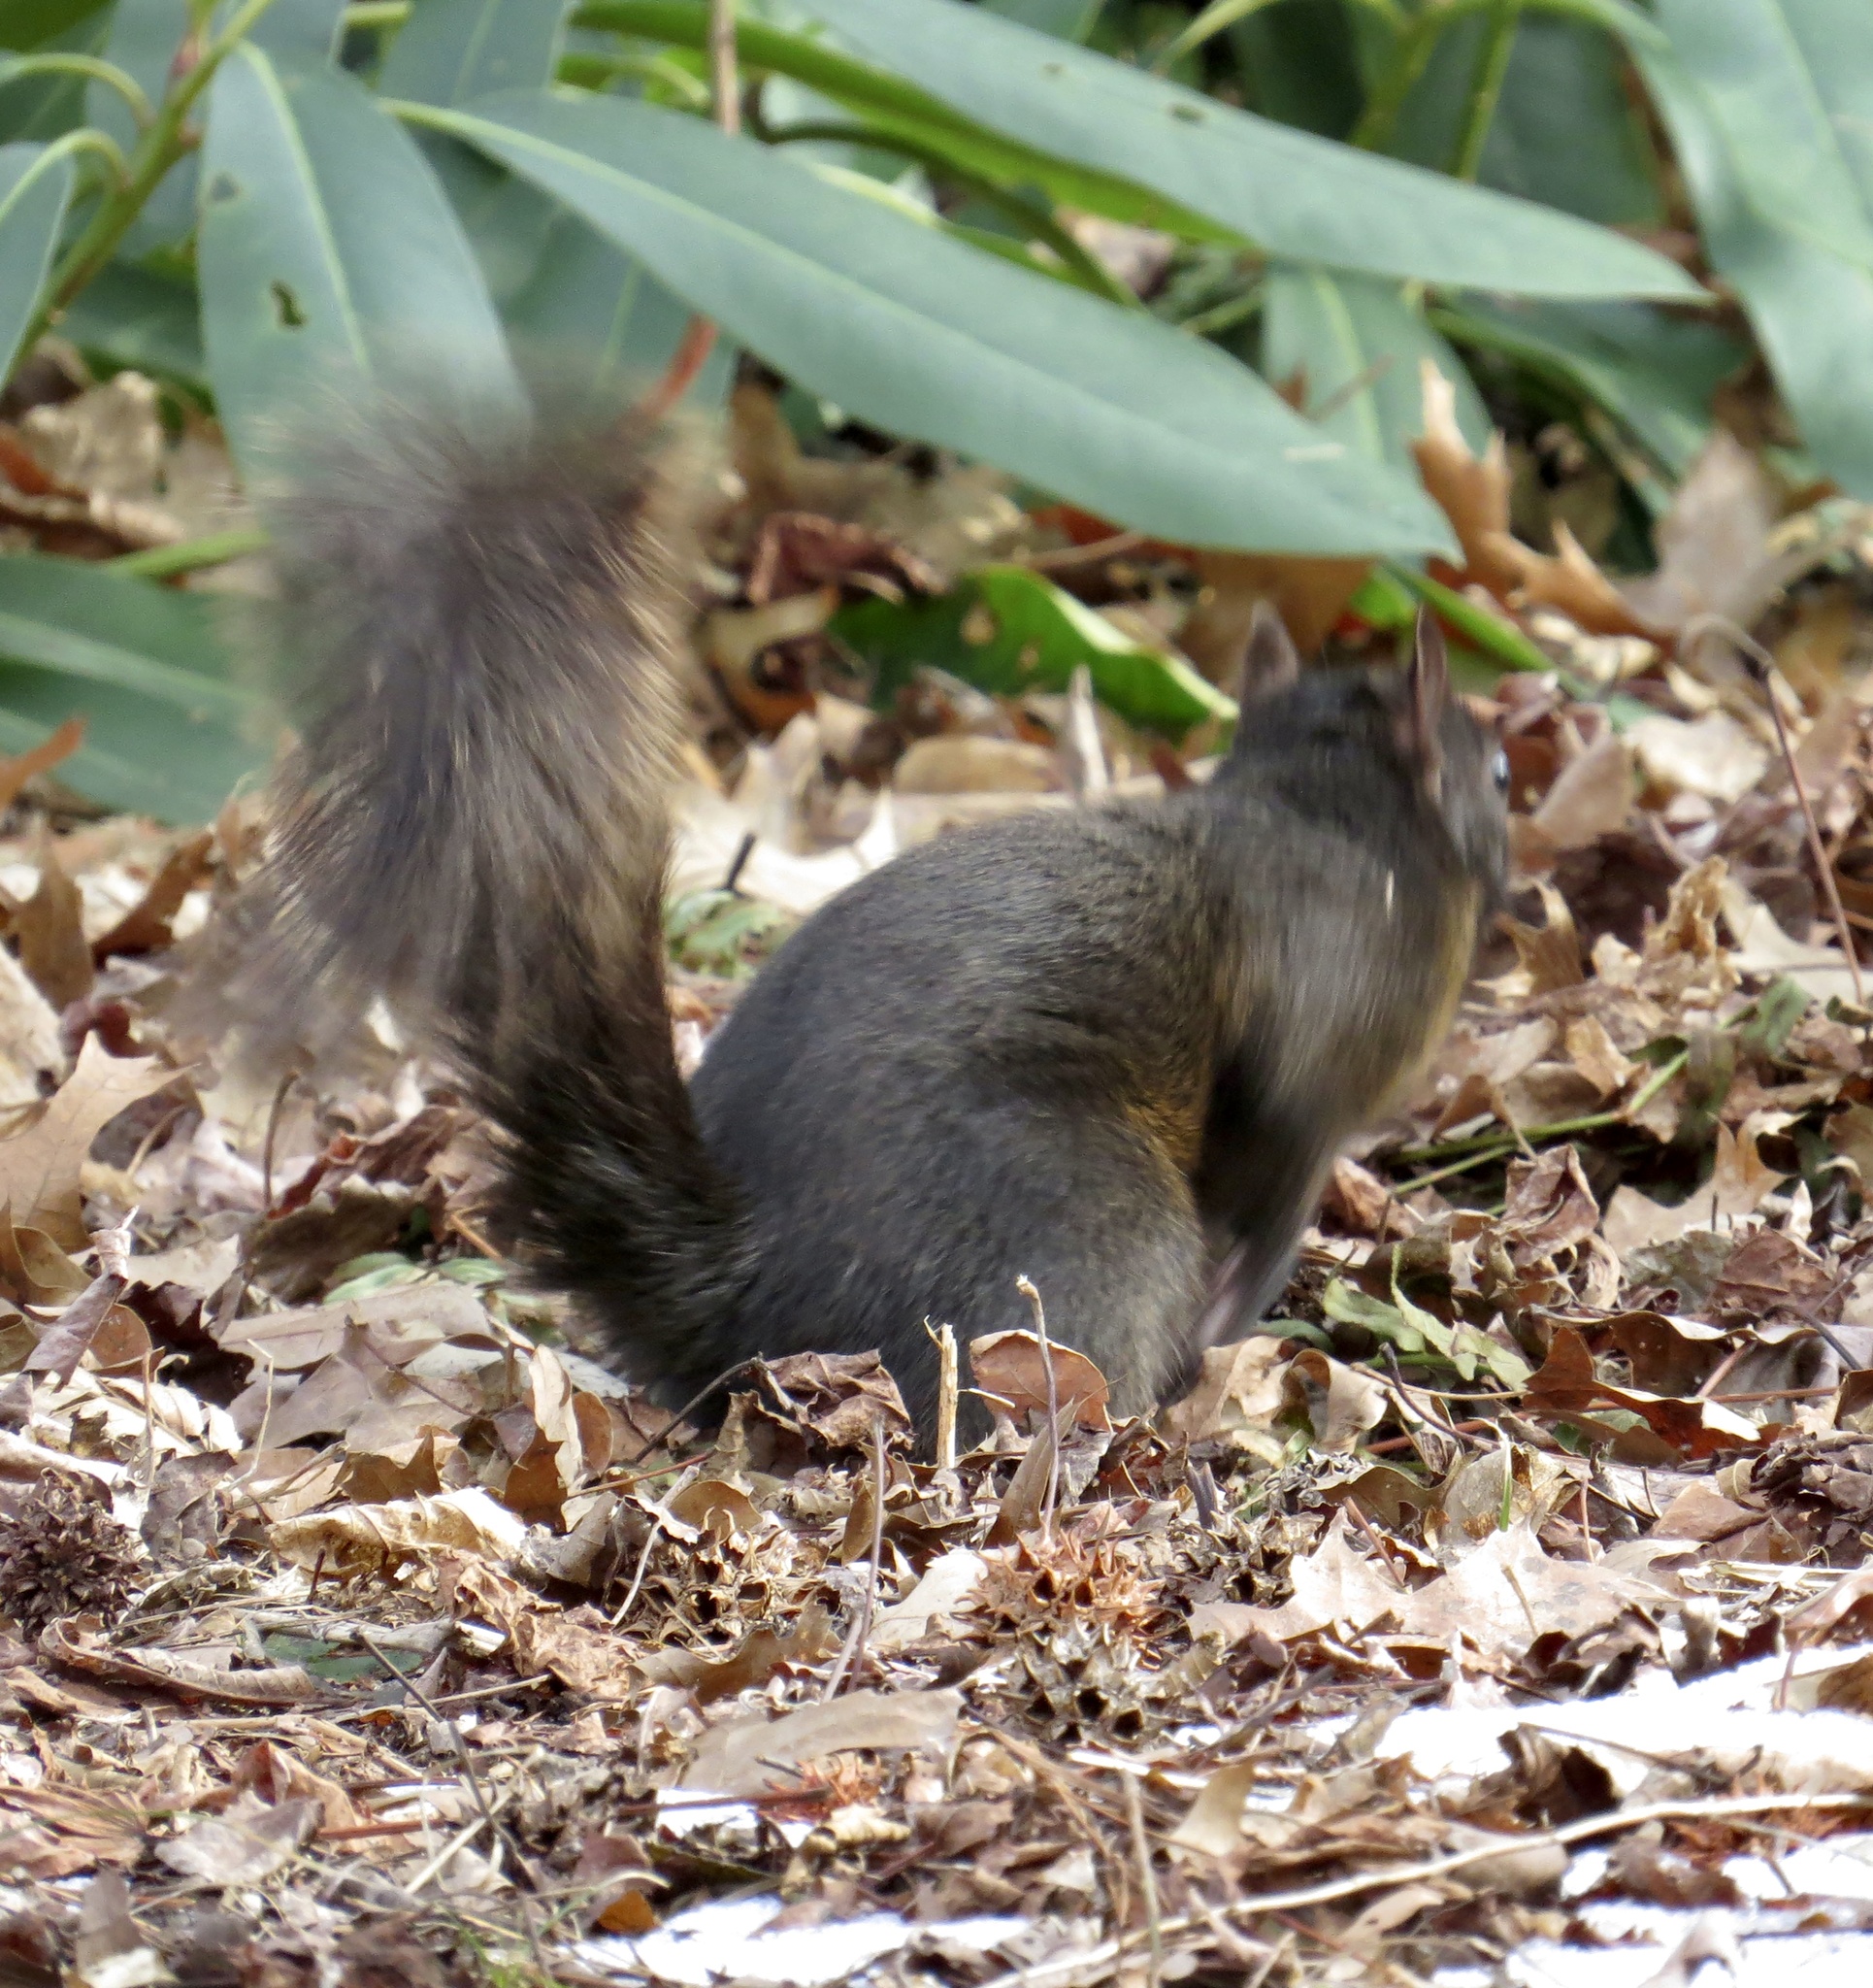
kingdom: Animalia
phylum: Chordata
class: Mammalia
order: Rodentia
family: Sciuridae
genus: Sciurus
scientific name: Sciurus carolinensis
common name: Eastern gray squirrel
